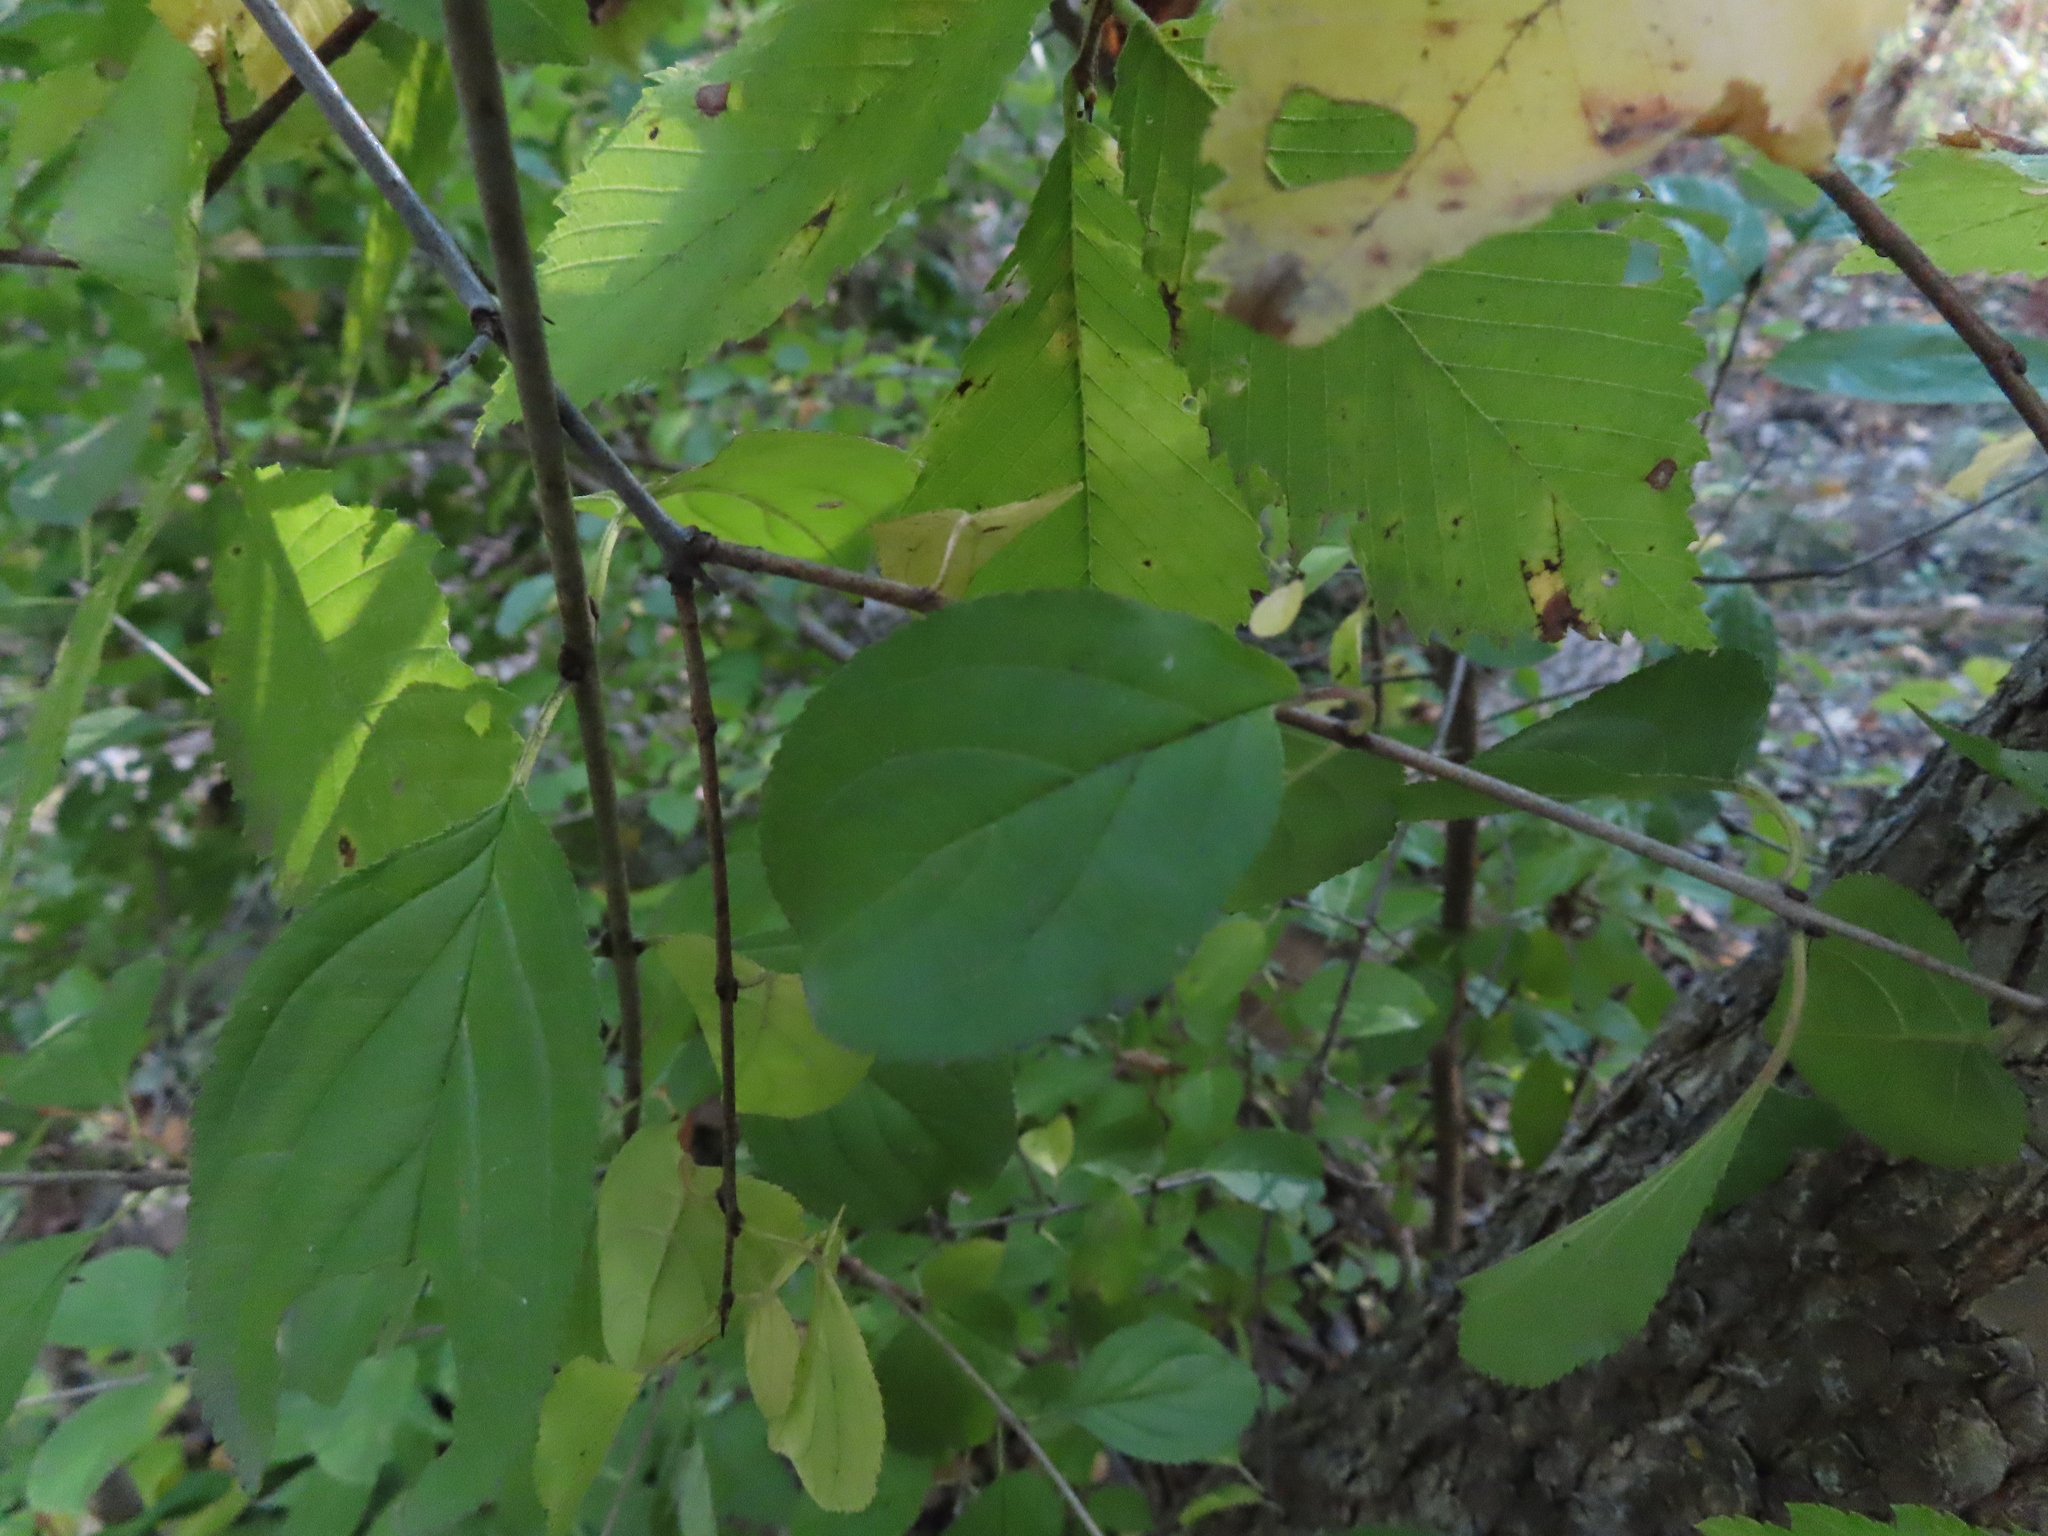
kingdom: Plantae
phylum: Tracheophyta
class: Magnoliopsida
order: Rosales
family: Rhamnaceae
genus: Rhamnus
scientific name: Rhamnus cathartica
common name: Common buckthorn
